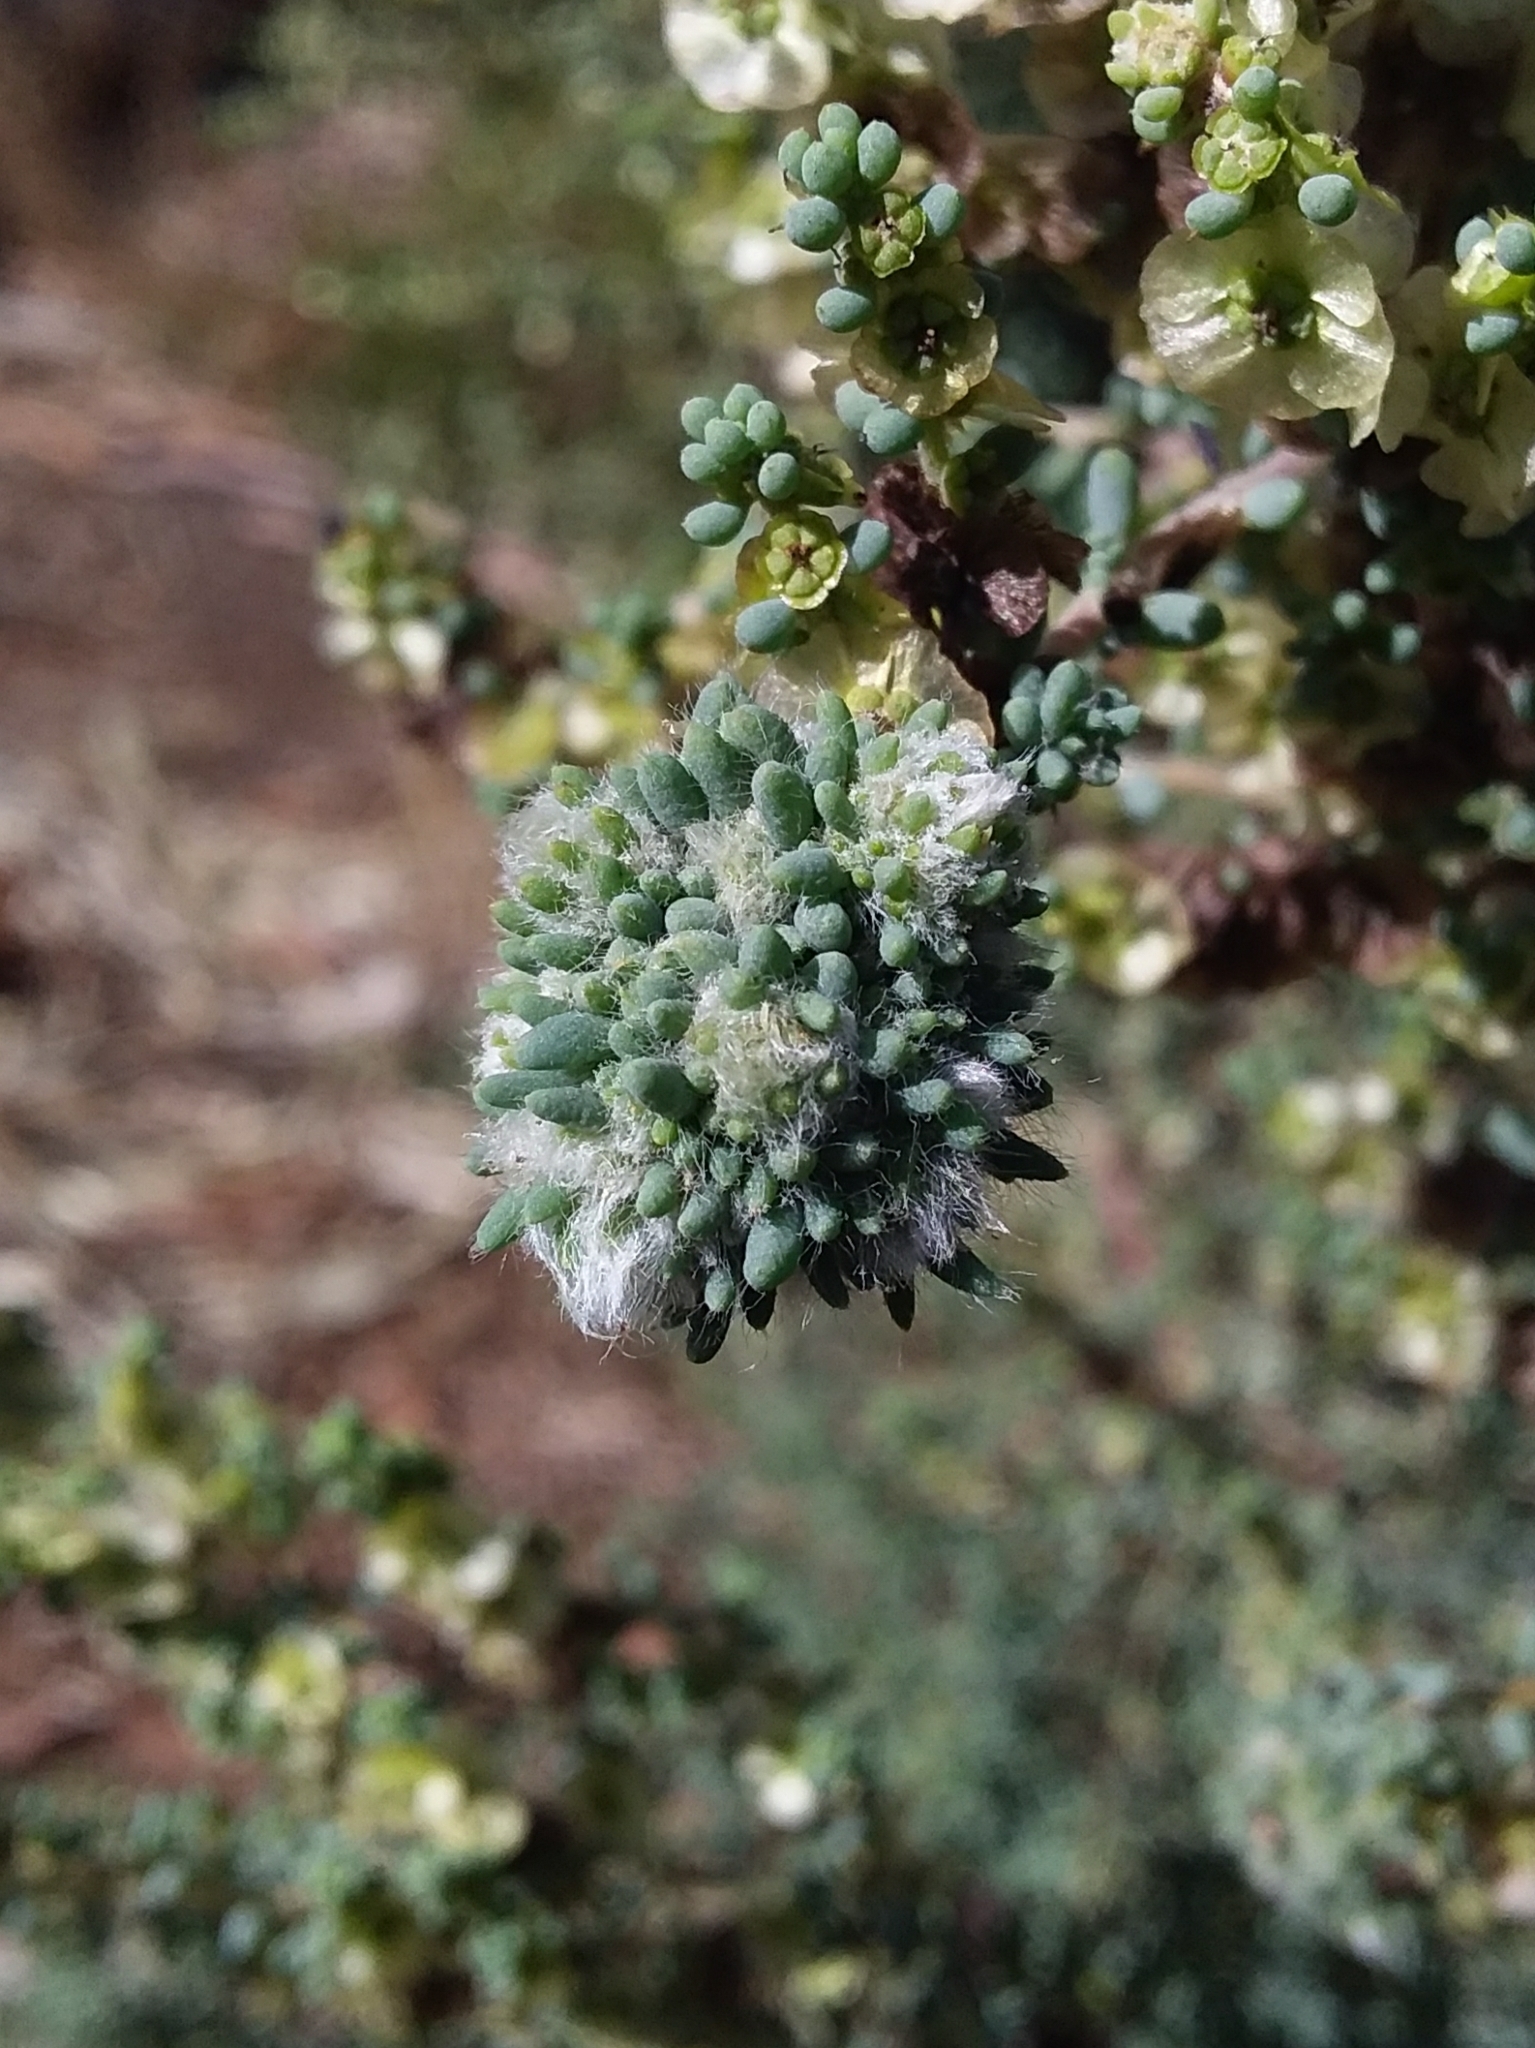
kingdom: Animalia
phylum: Arthropoda
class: Insecta
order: Diptera
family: Cecidomyiidae
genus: Dactylasioptera
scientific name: Dactylasioptera milnae
